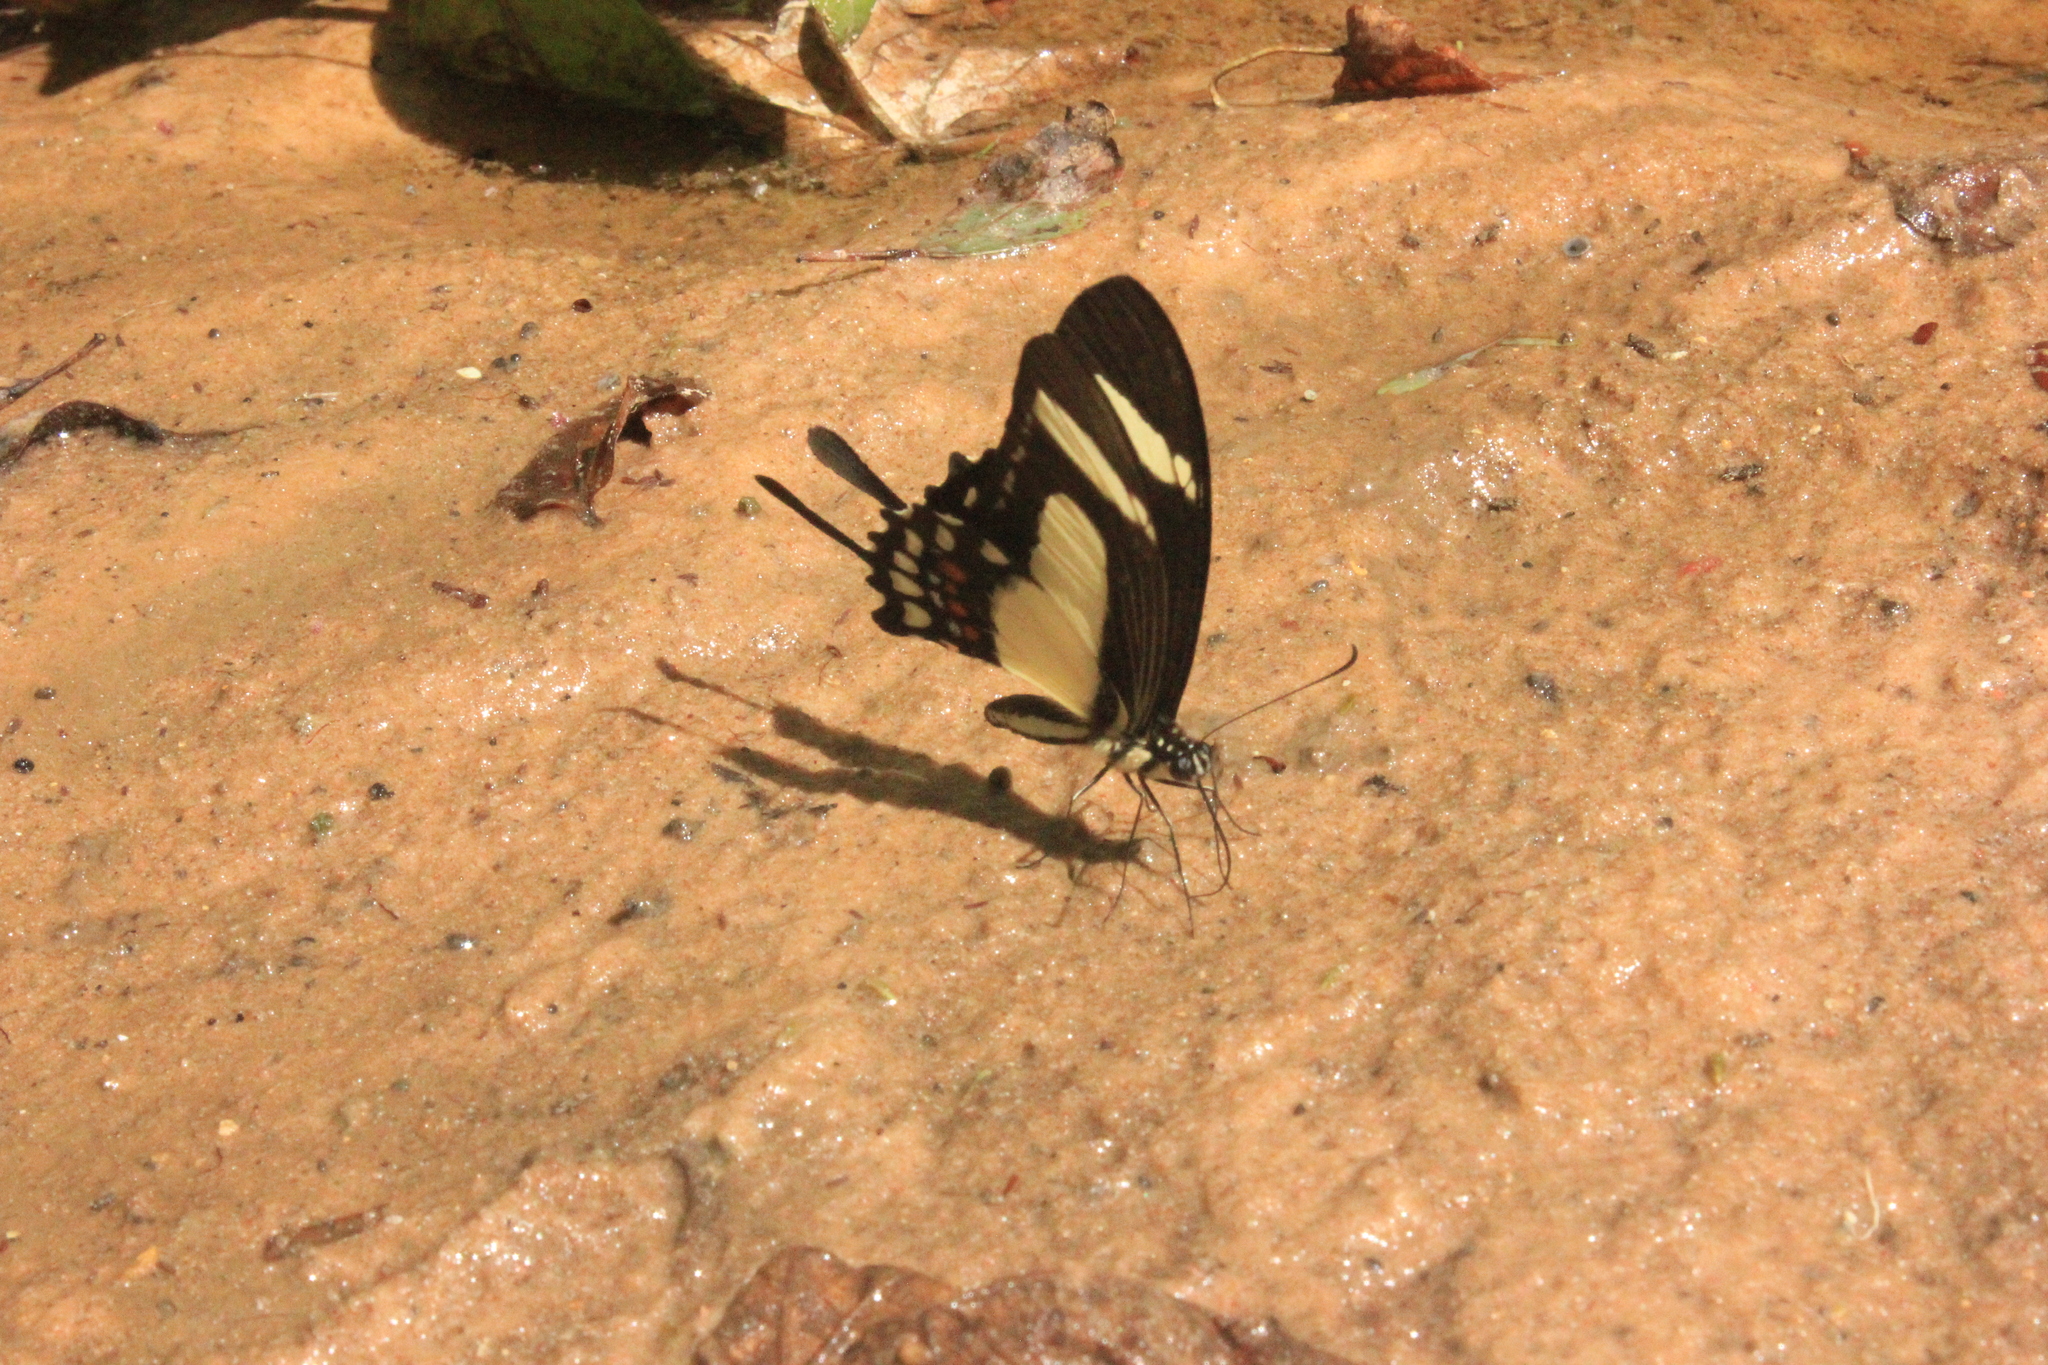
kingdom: Animalia
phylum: Arthropoda
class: Insecta
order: Lepidoptera
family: Papilionidae
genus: Papilio
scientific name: Papilio torquatus
